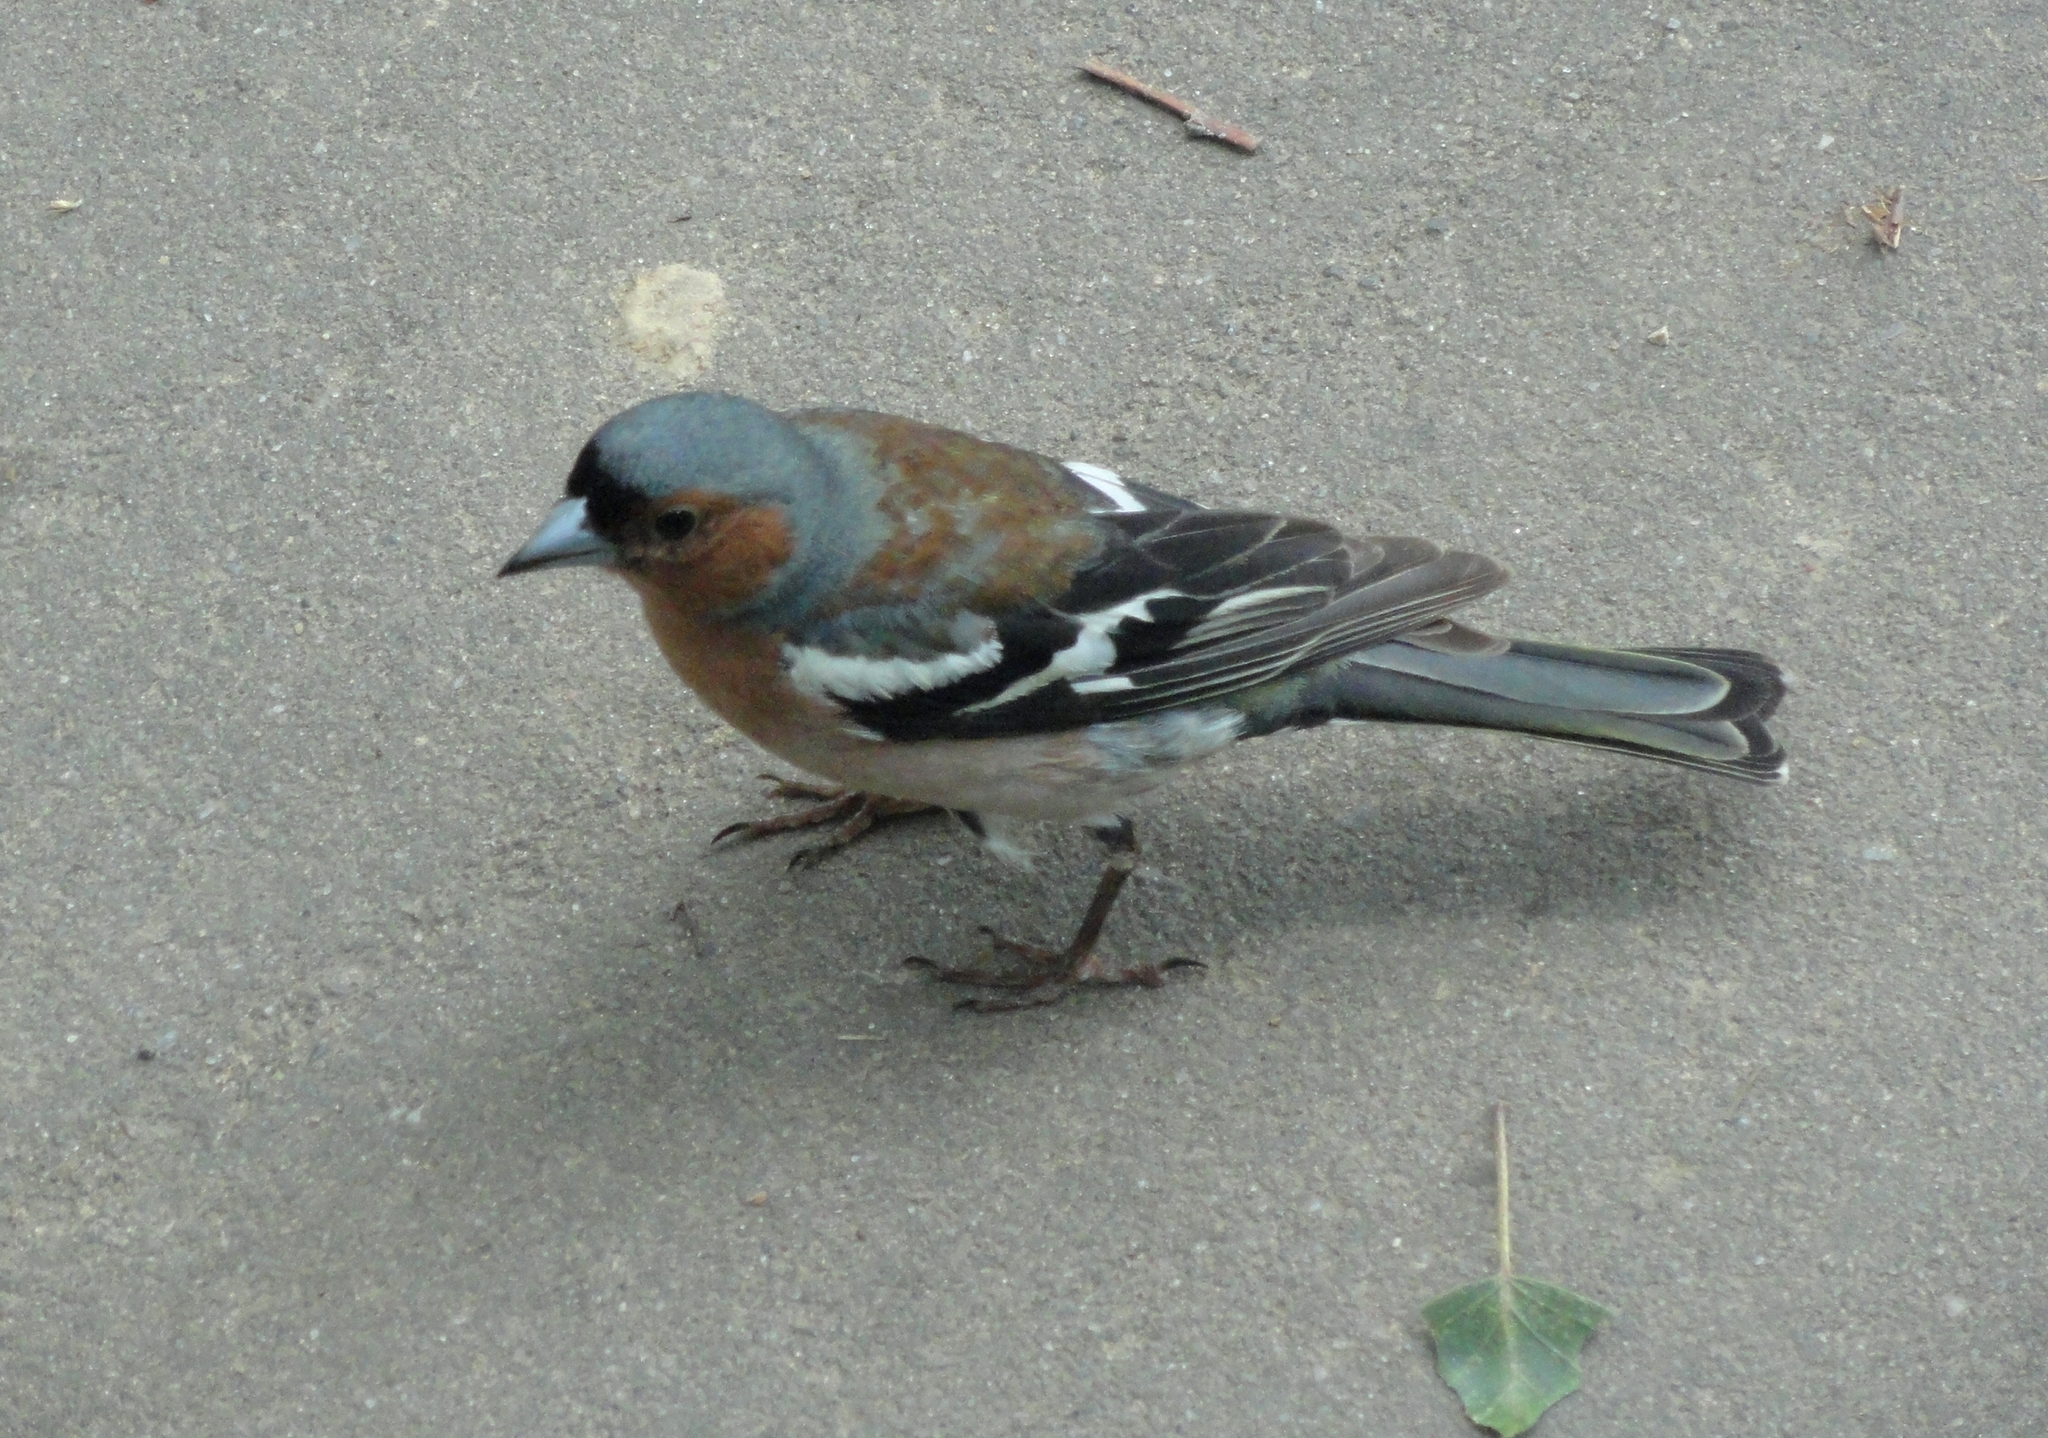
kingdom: Animalia
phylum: Chordata
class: Aves
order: Passeriformes
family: Fringillidae
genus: Fringilla
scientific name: Fringilla coelebs
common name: Common chaffinch
